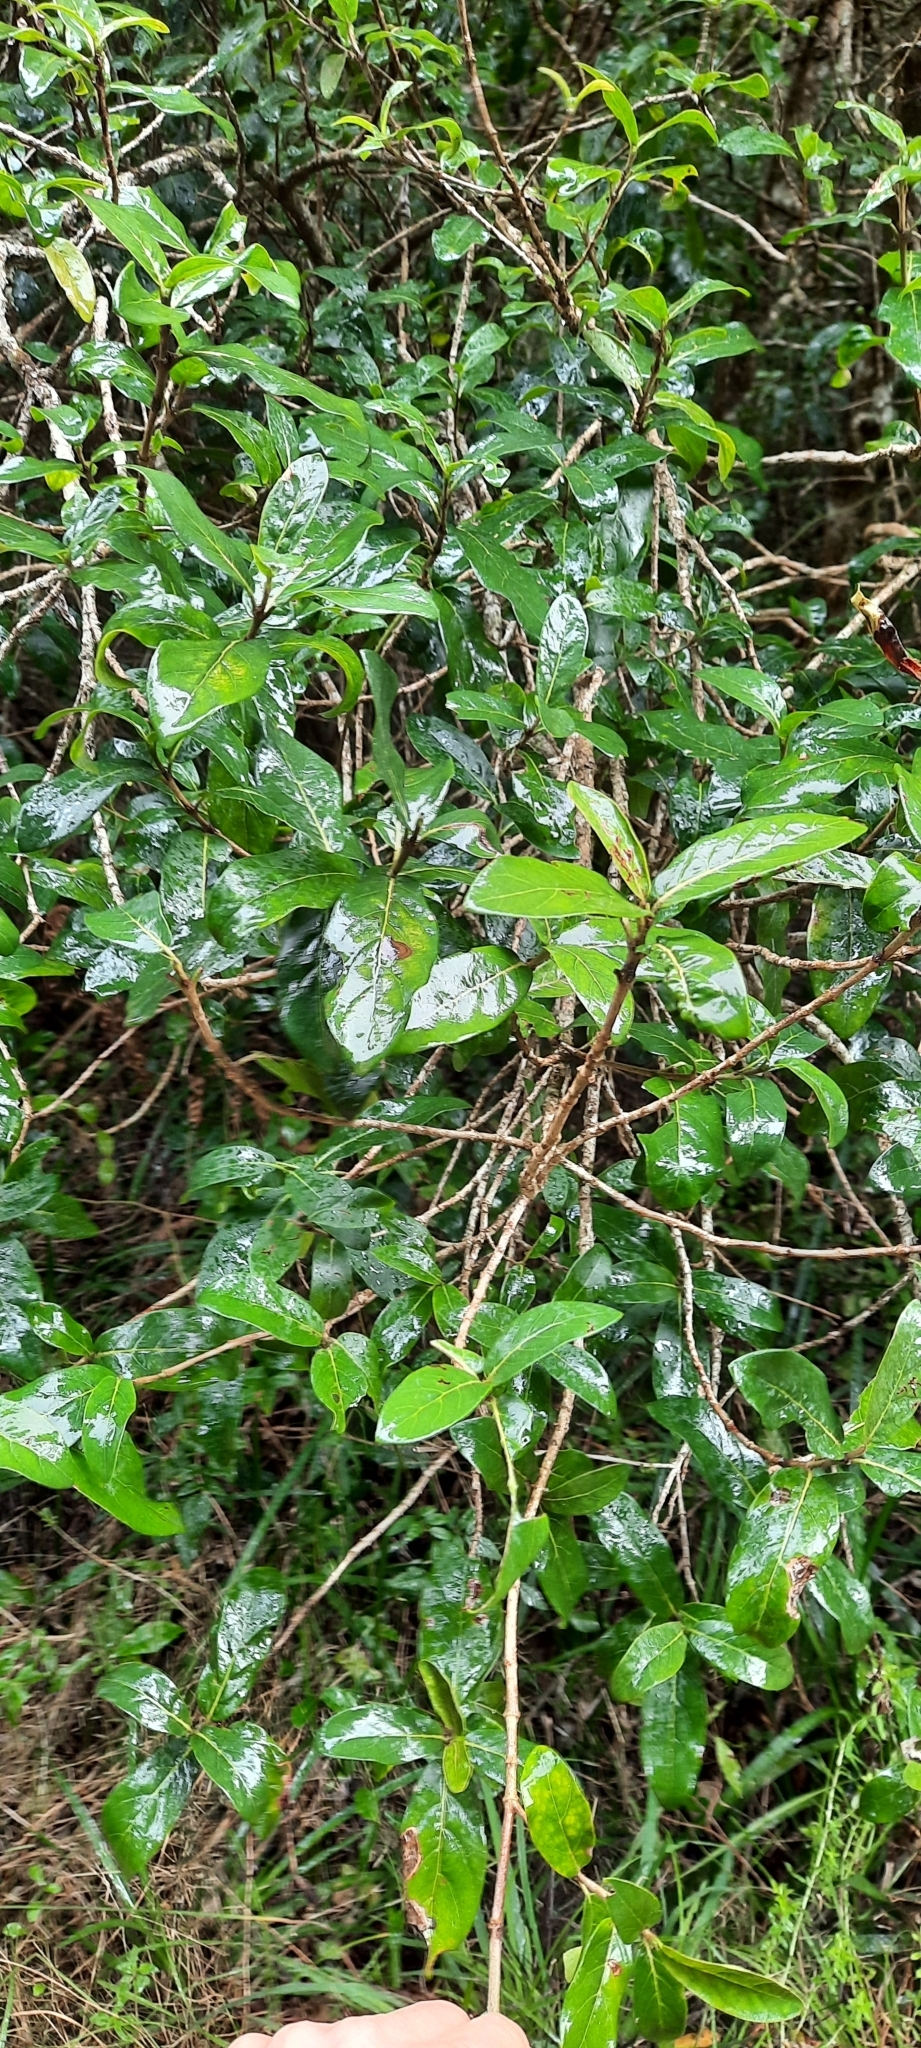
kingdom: Plantae
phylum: Tracheophyta
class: Magnoliopsida
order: Gentianales
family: Rubiaceae
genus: Burchellia
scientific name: Burchellia bubalina
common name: Wild pomegranate
